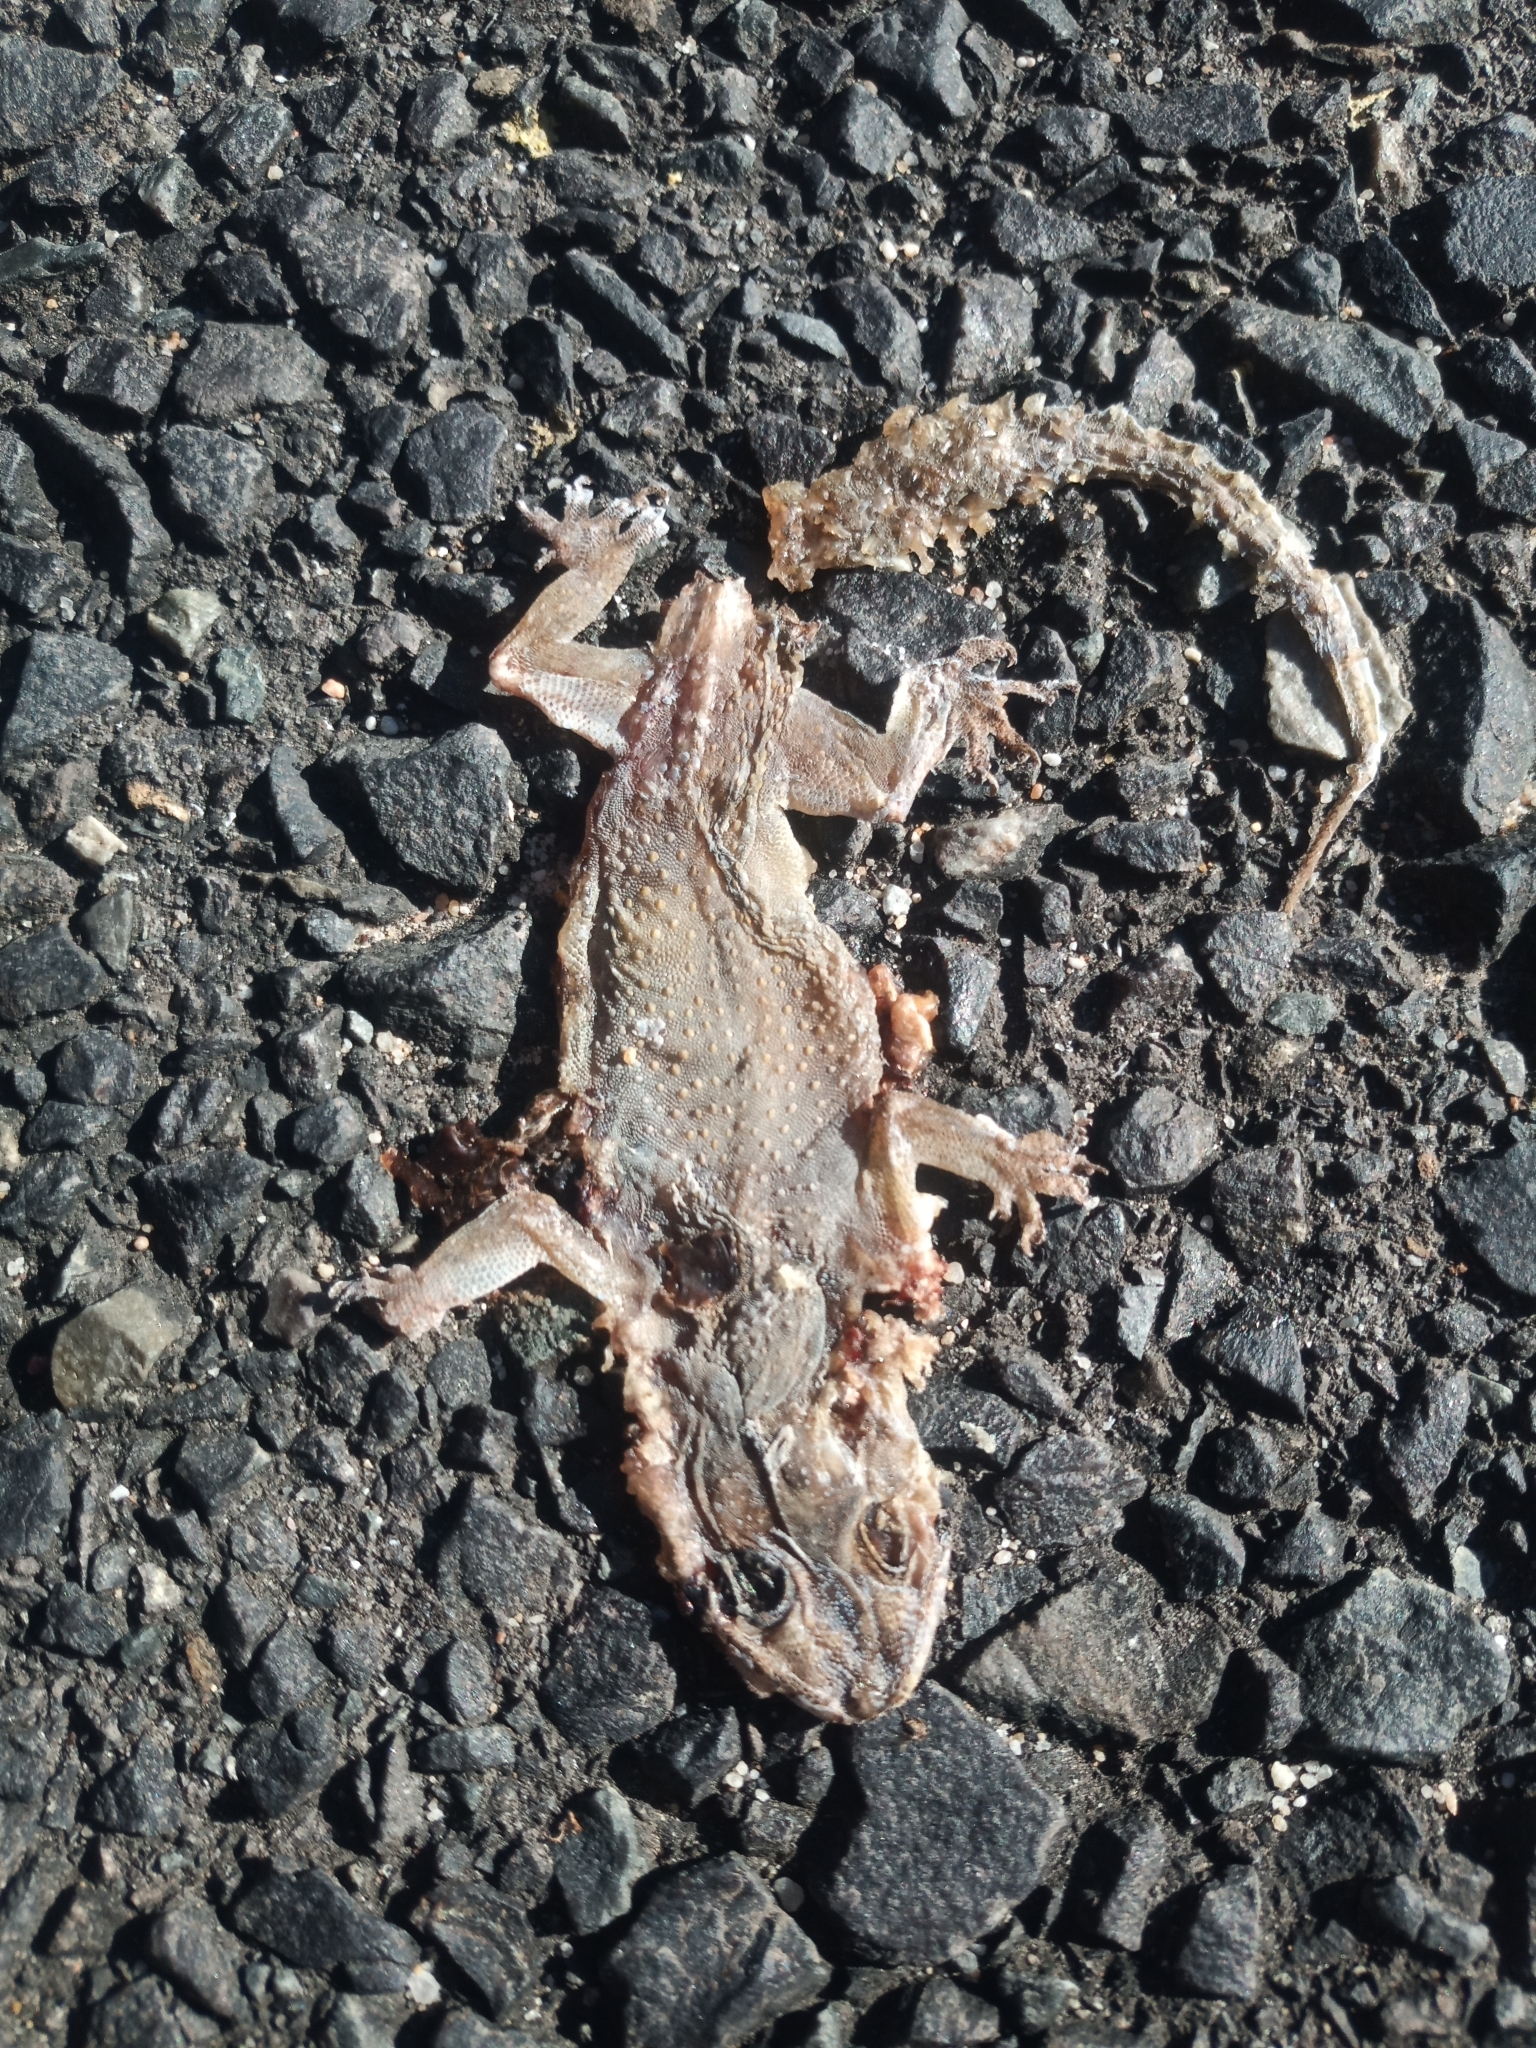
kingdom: Animalia
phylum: Chordata
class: Squamata
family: Gekkonidae
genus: Hemidactylus
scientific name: Hemidactylus mabouia
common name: House gecko
